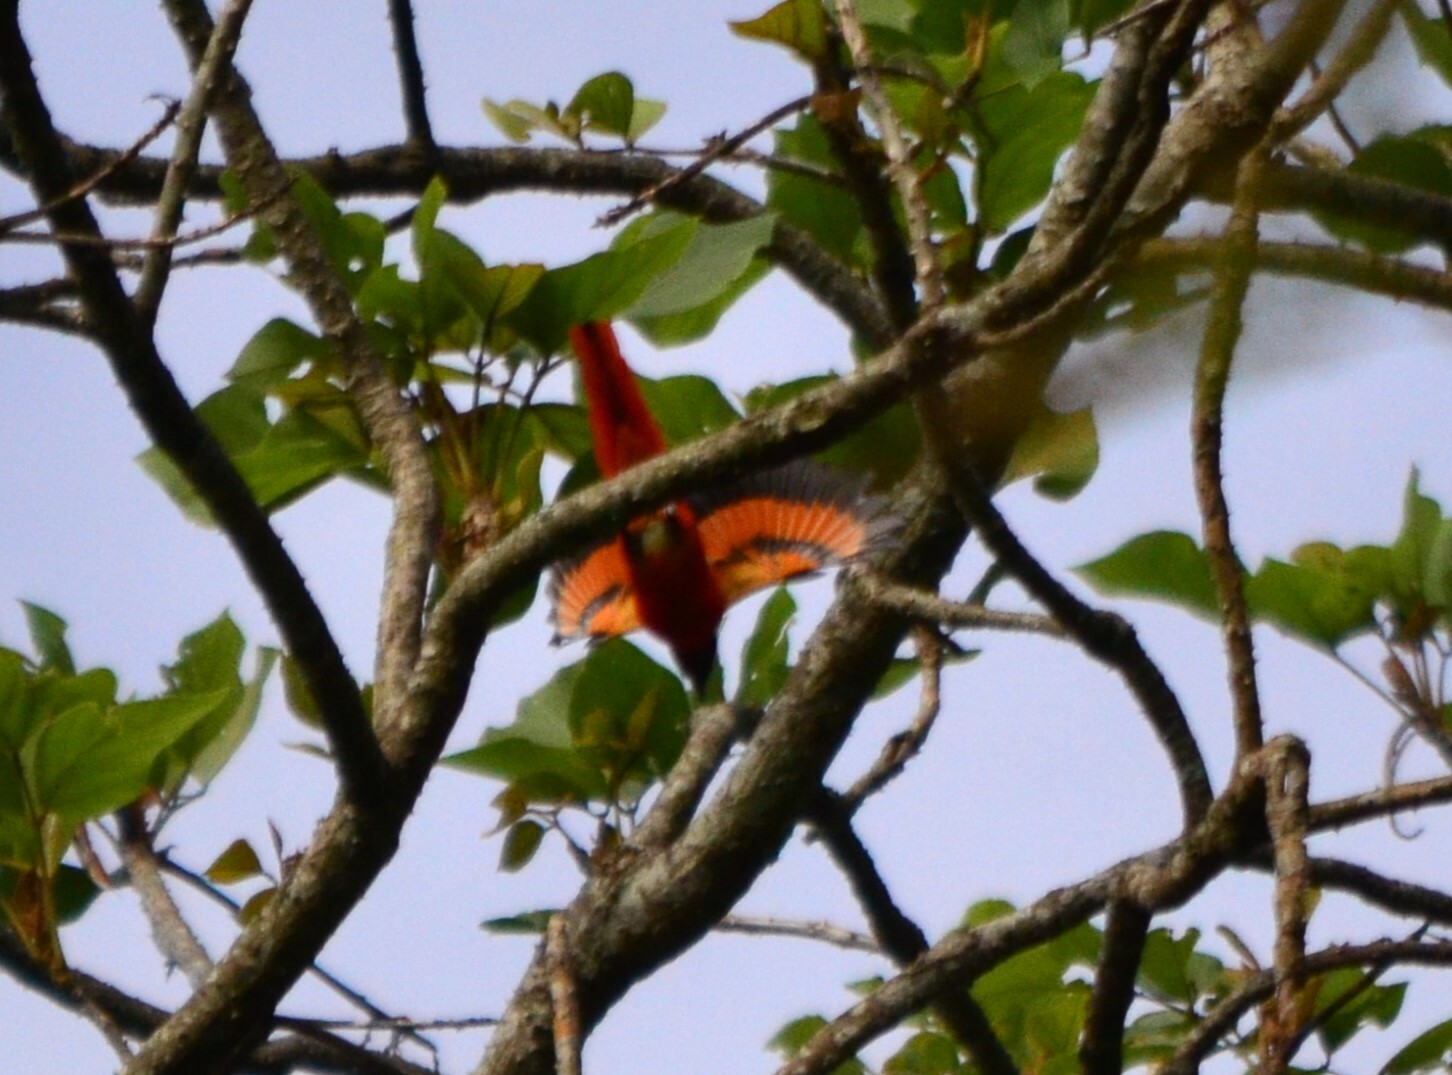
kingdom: Animalia
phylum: Chordata
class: Aves
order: Passeriformes
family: Campephagidae
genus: Pericrocotus
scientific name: Pericrocotus speciosus
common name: Scarlet minivet
